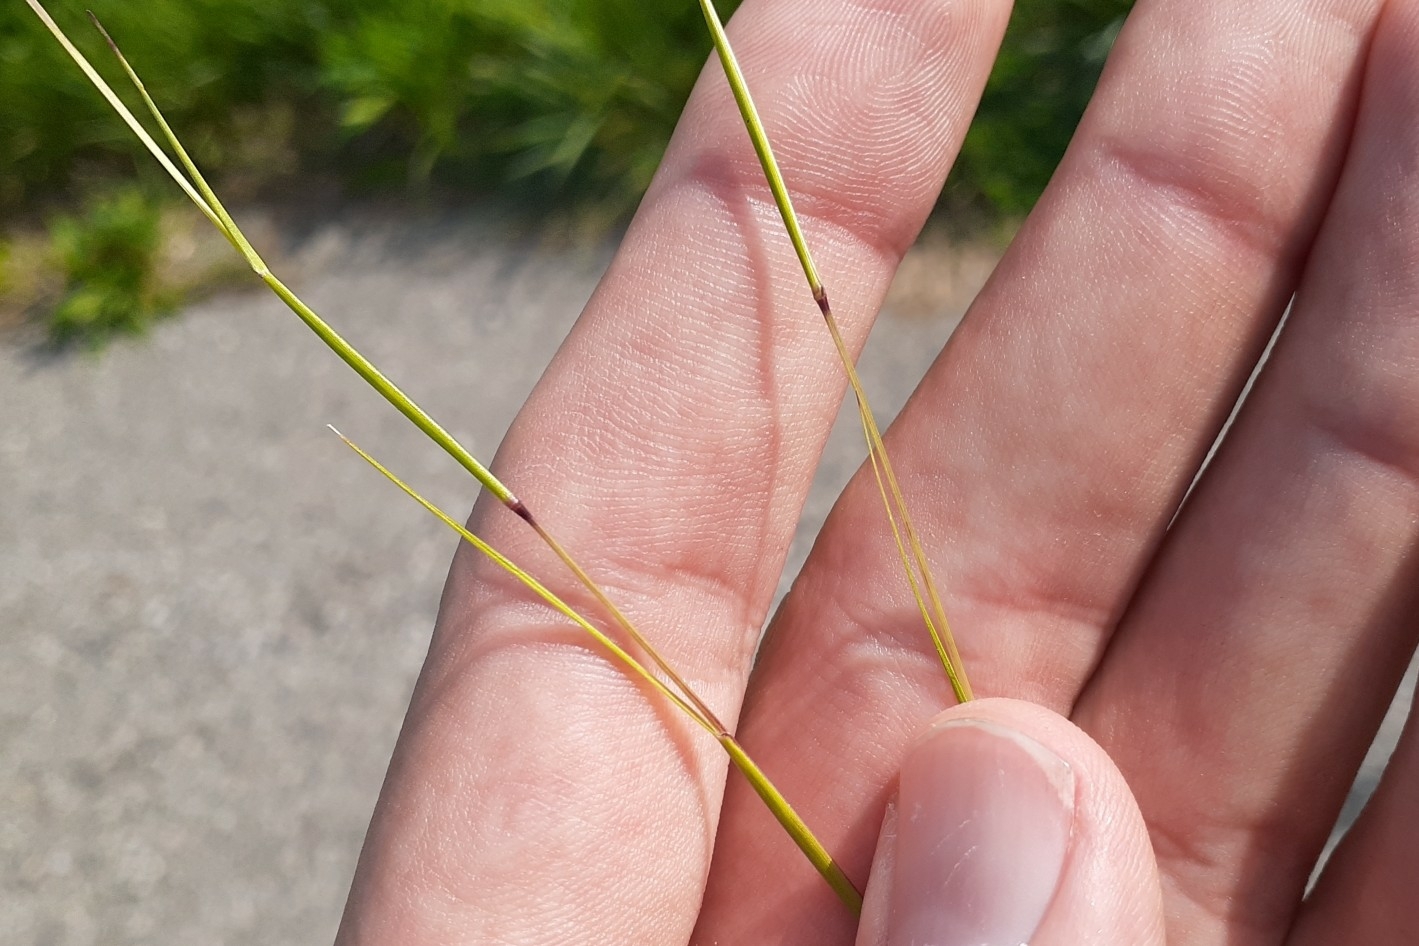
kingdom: Plantae
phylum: Tracheophyta
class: Liliopsida
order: Poales
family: Poaceae
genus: Sporobolus
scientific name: Sporobolus vaginiflorus
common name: Poverty dropseed
